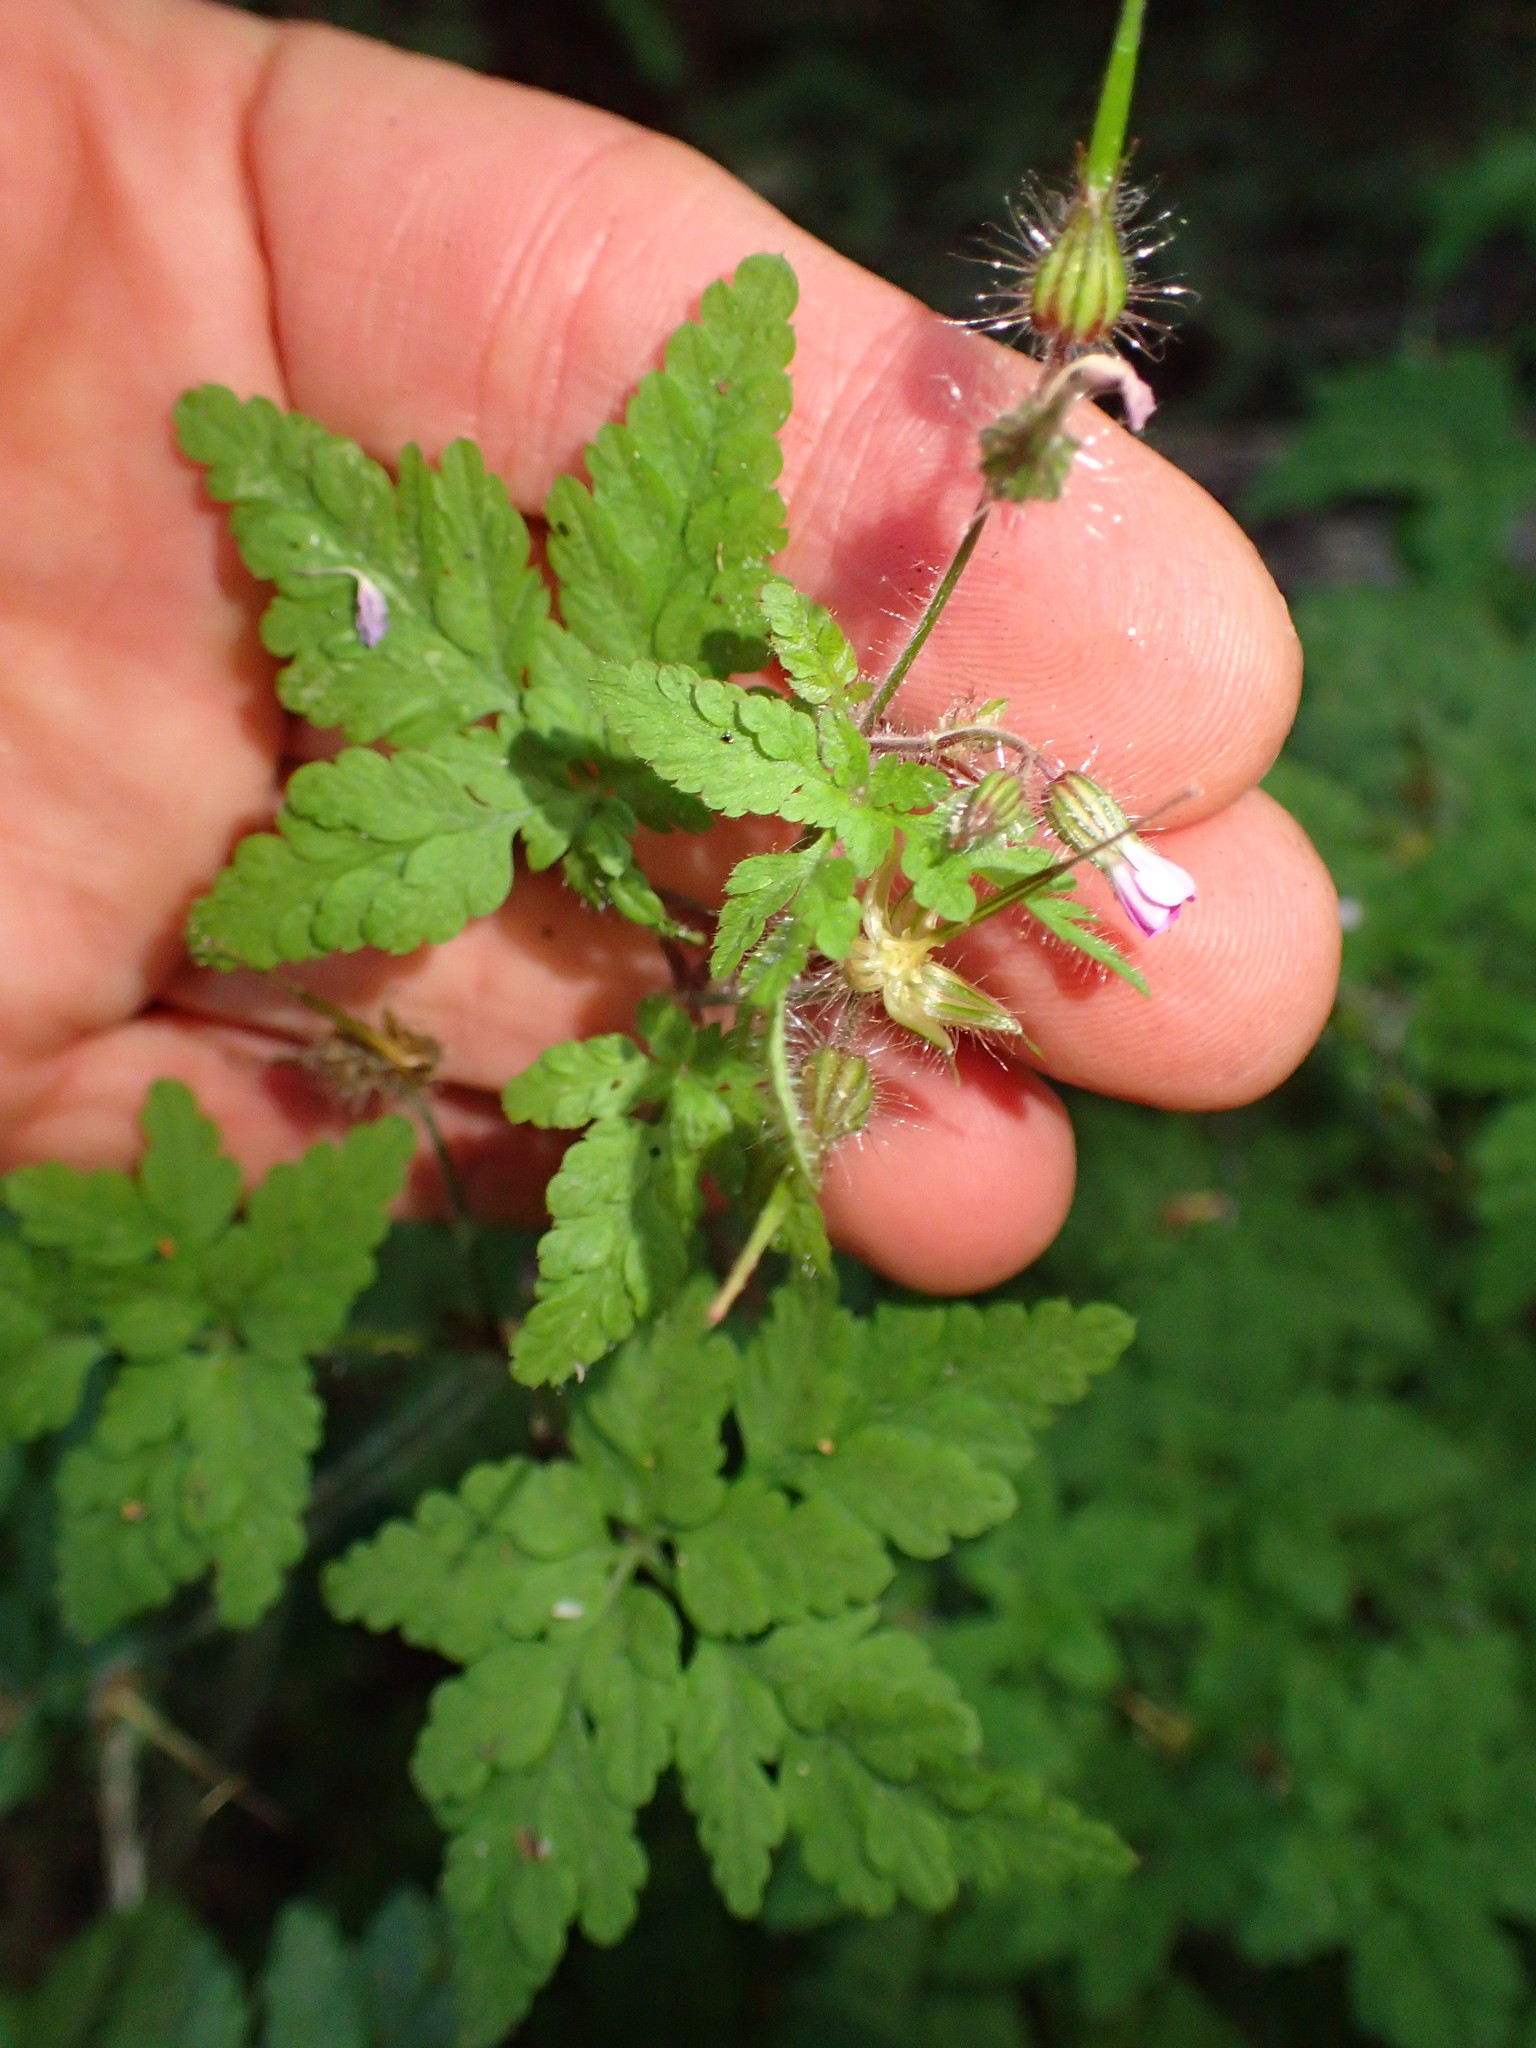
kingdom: Plantae
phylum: Tracheophyta
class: Magnoliopsida
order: Geraniales
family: Geraniaceae
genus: Geranium
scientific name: Geranium robertianum
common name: Herb-robert
